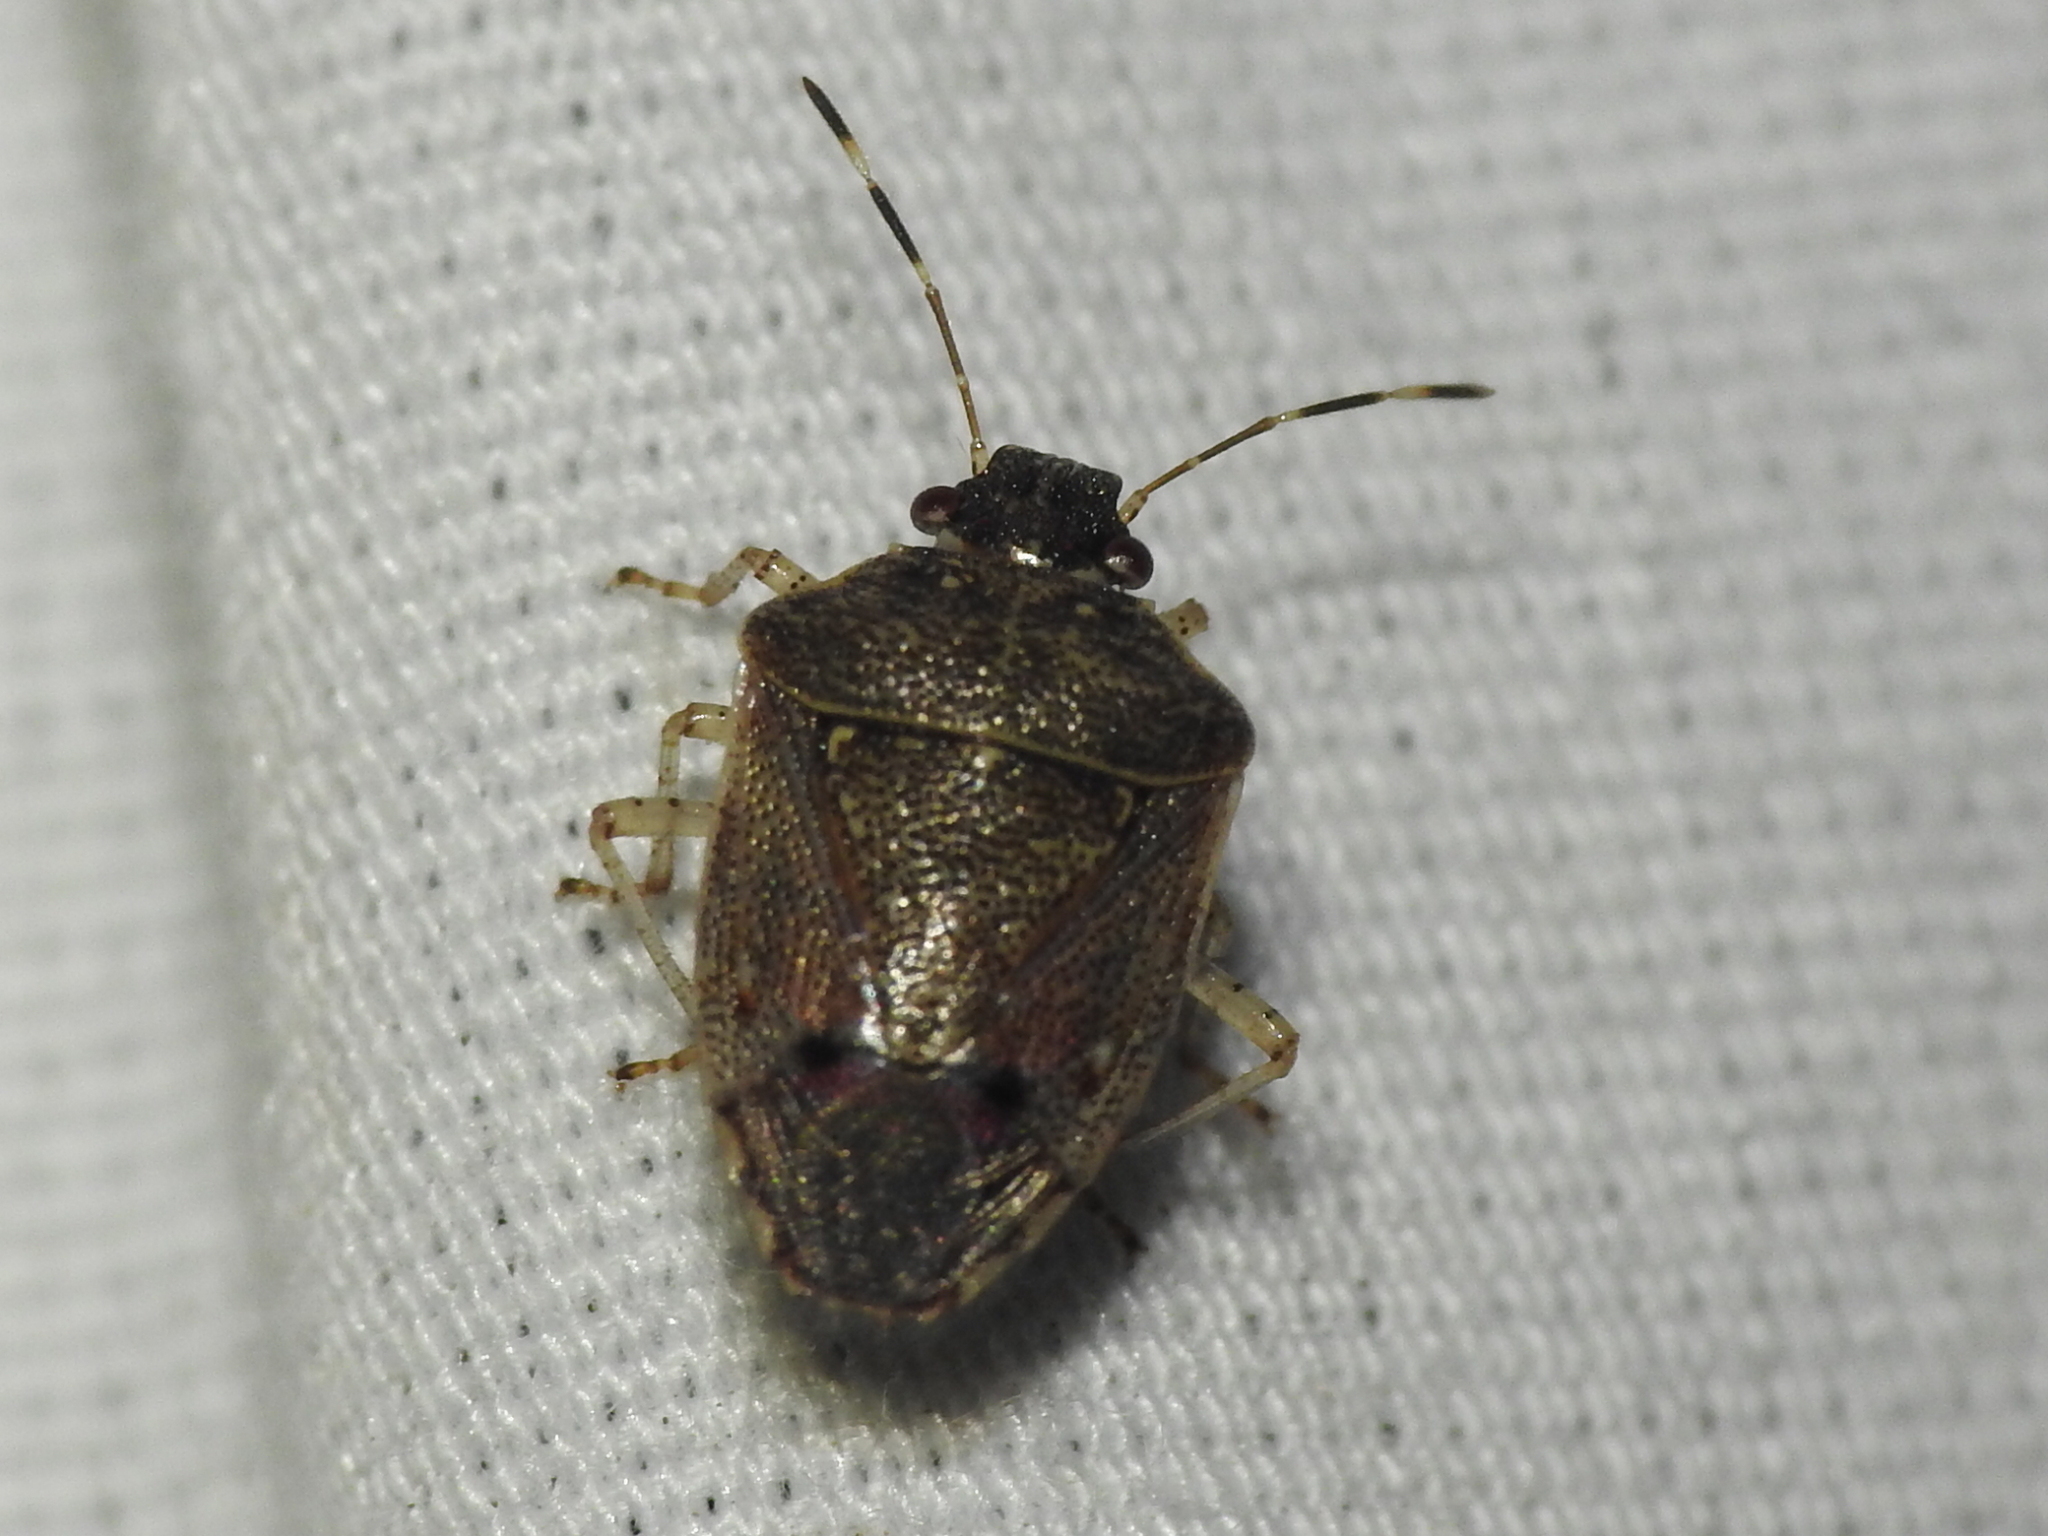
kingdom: Animalia
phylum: Arthropoda
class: Insecta
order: Hemiptera
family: Pentatomidae
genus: Mormidea
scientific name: Mormidea cubrosa
